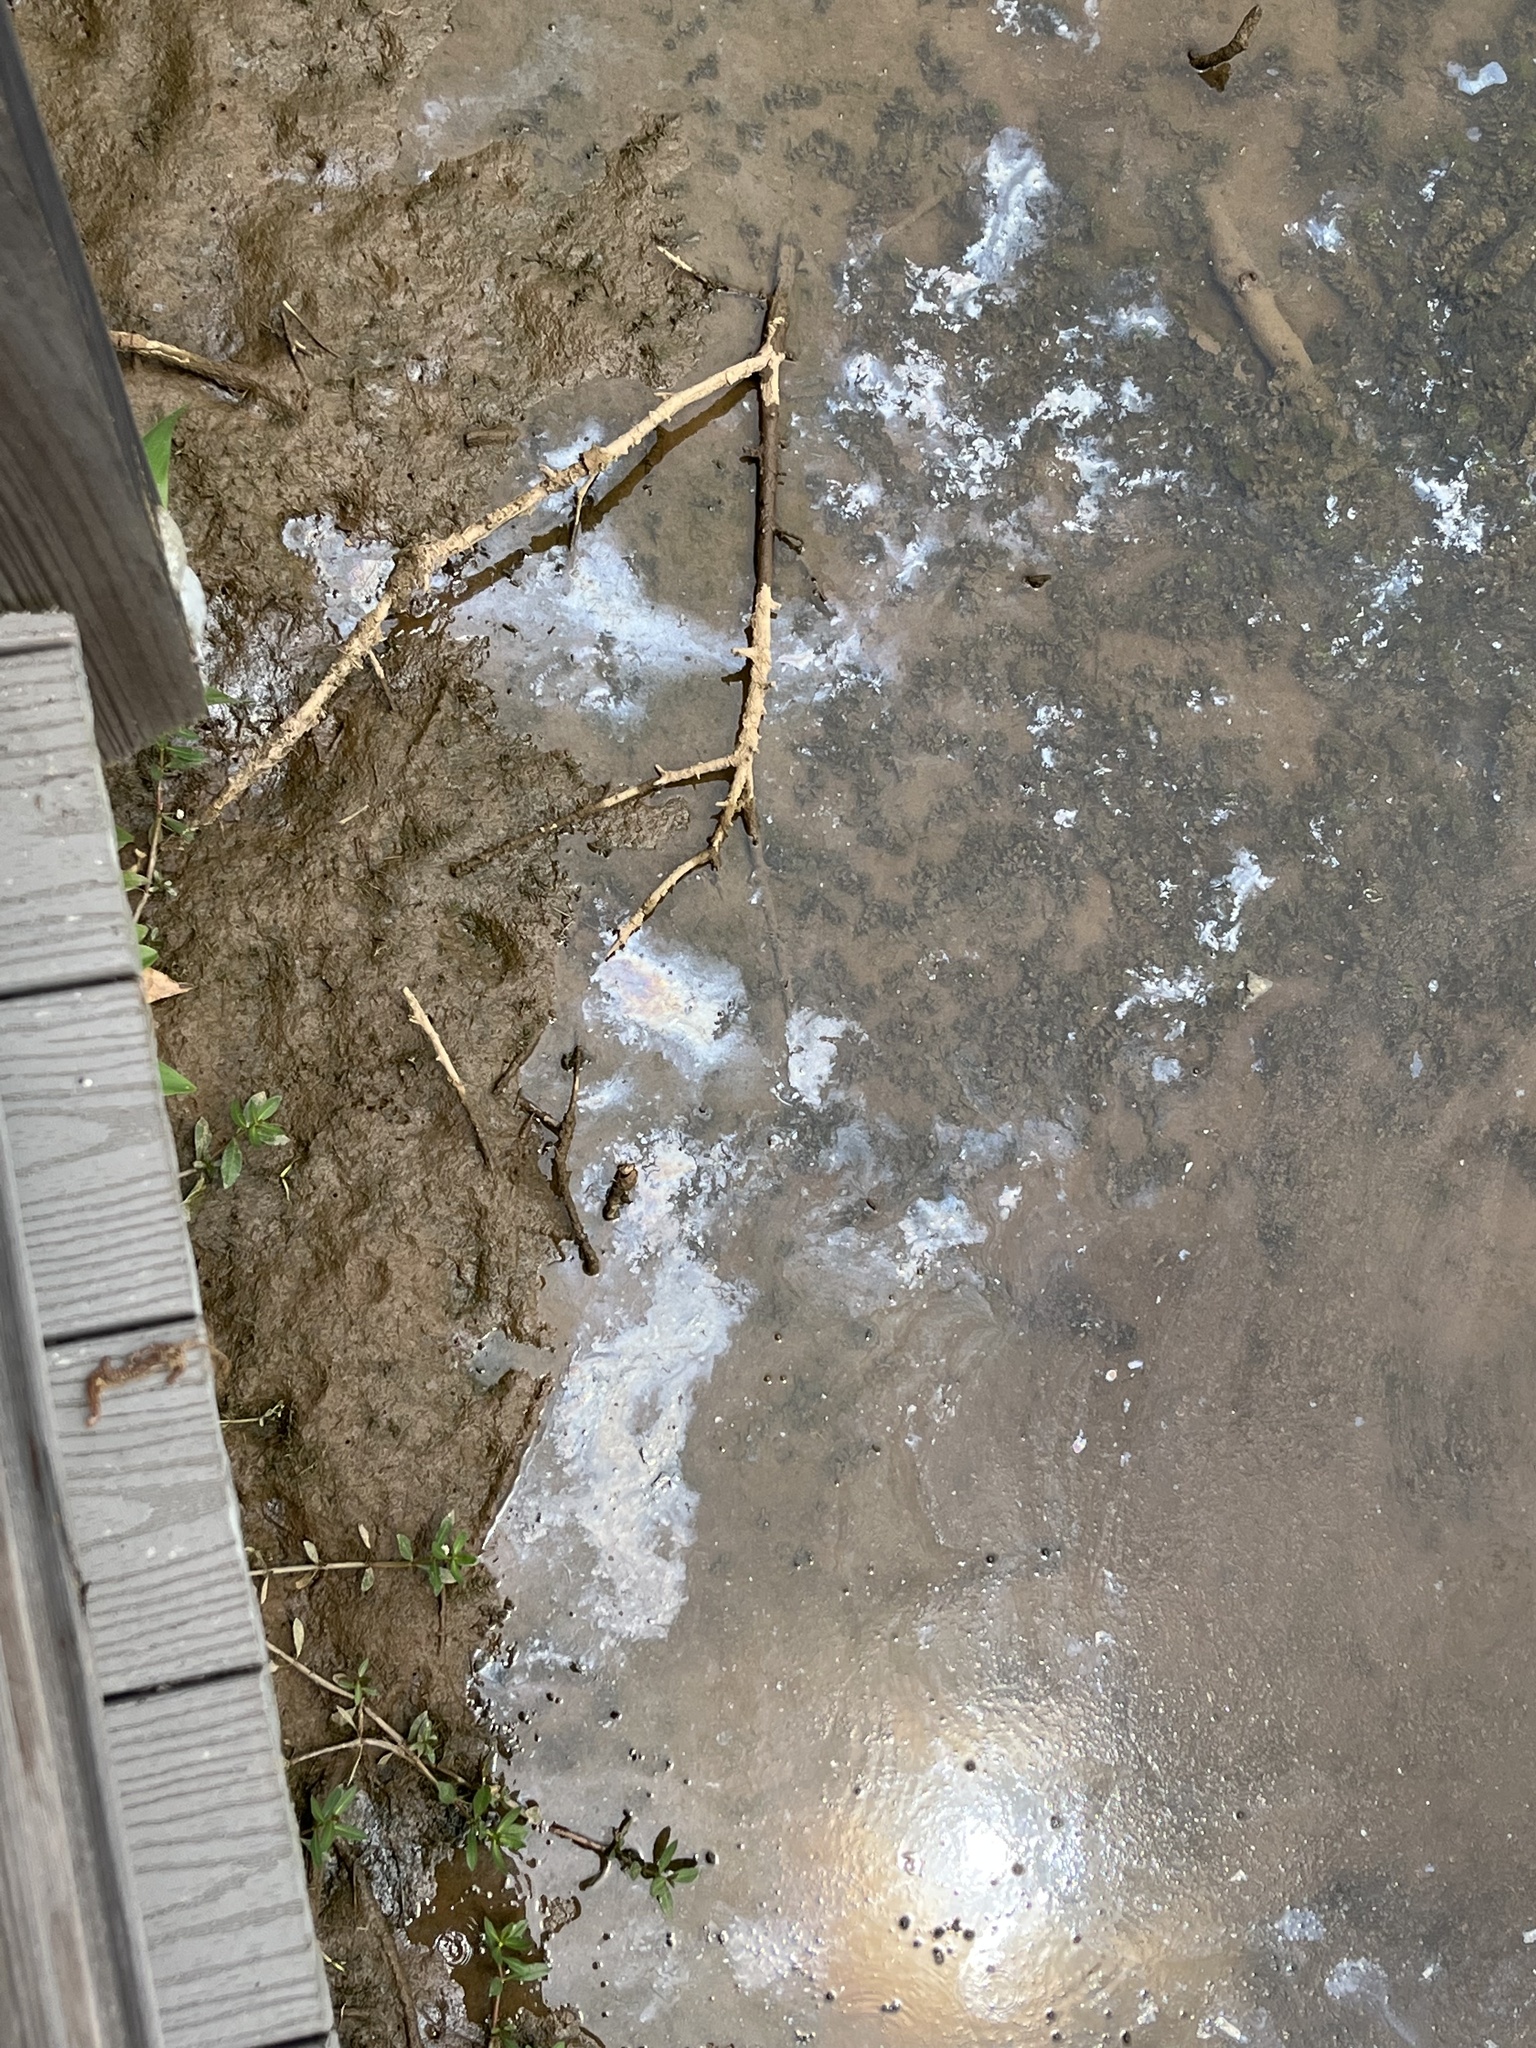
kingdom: Bacteria
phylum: Proteobacteria
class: Gammaproteobacteria
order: Burkholderiales
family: Burkholderiaceae
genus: Leptothrix
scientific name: Leptothrix discophora
